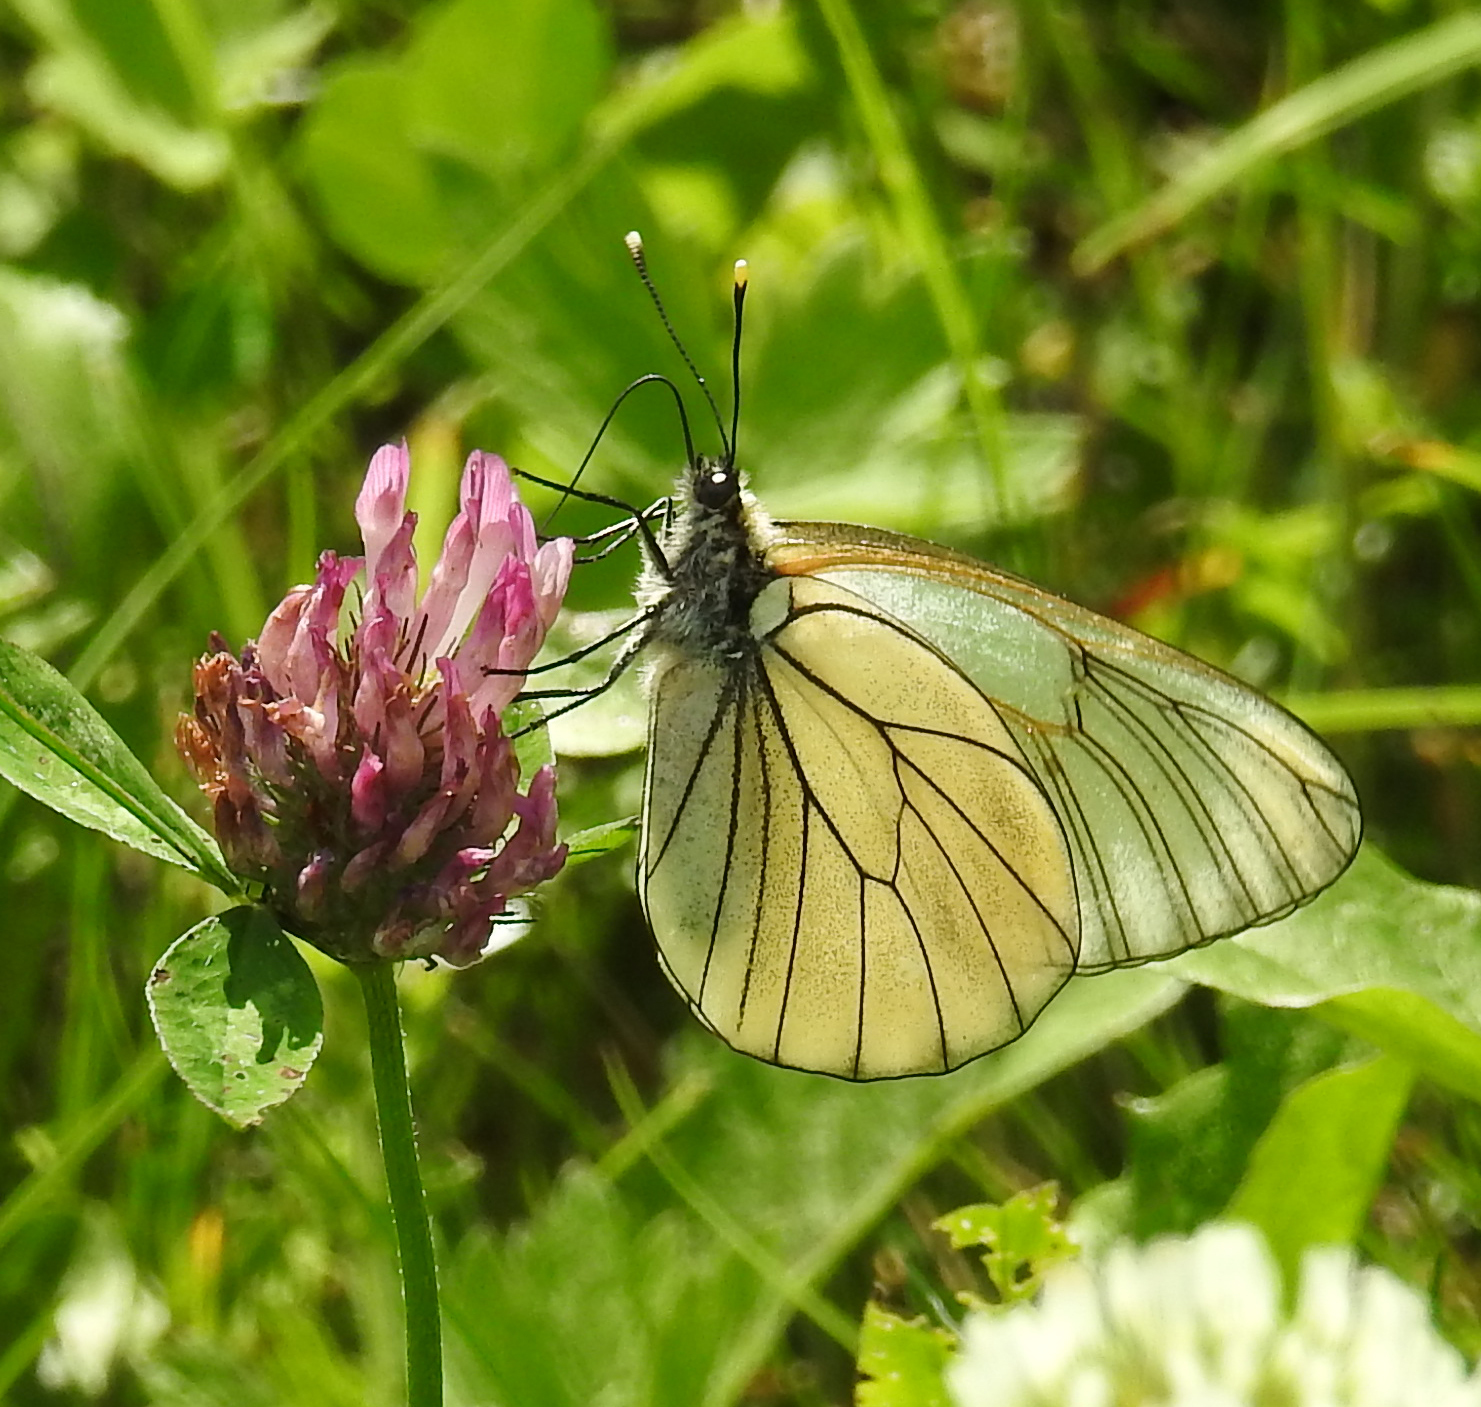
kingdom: Animalia
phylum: Arthropoda
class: Insecta
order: Lepidoptera
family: Pieridae
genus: Aporia
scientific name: Aporia crataegi
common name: Black-veined white
